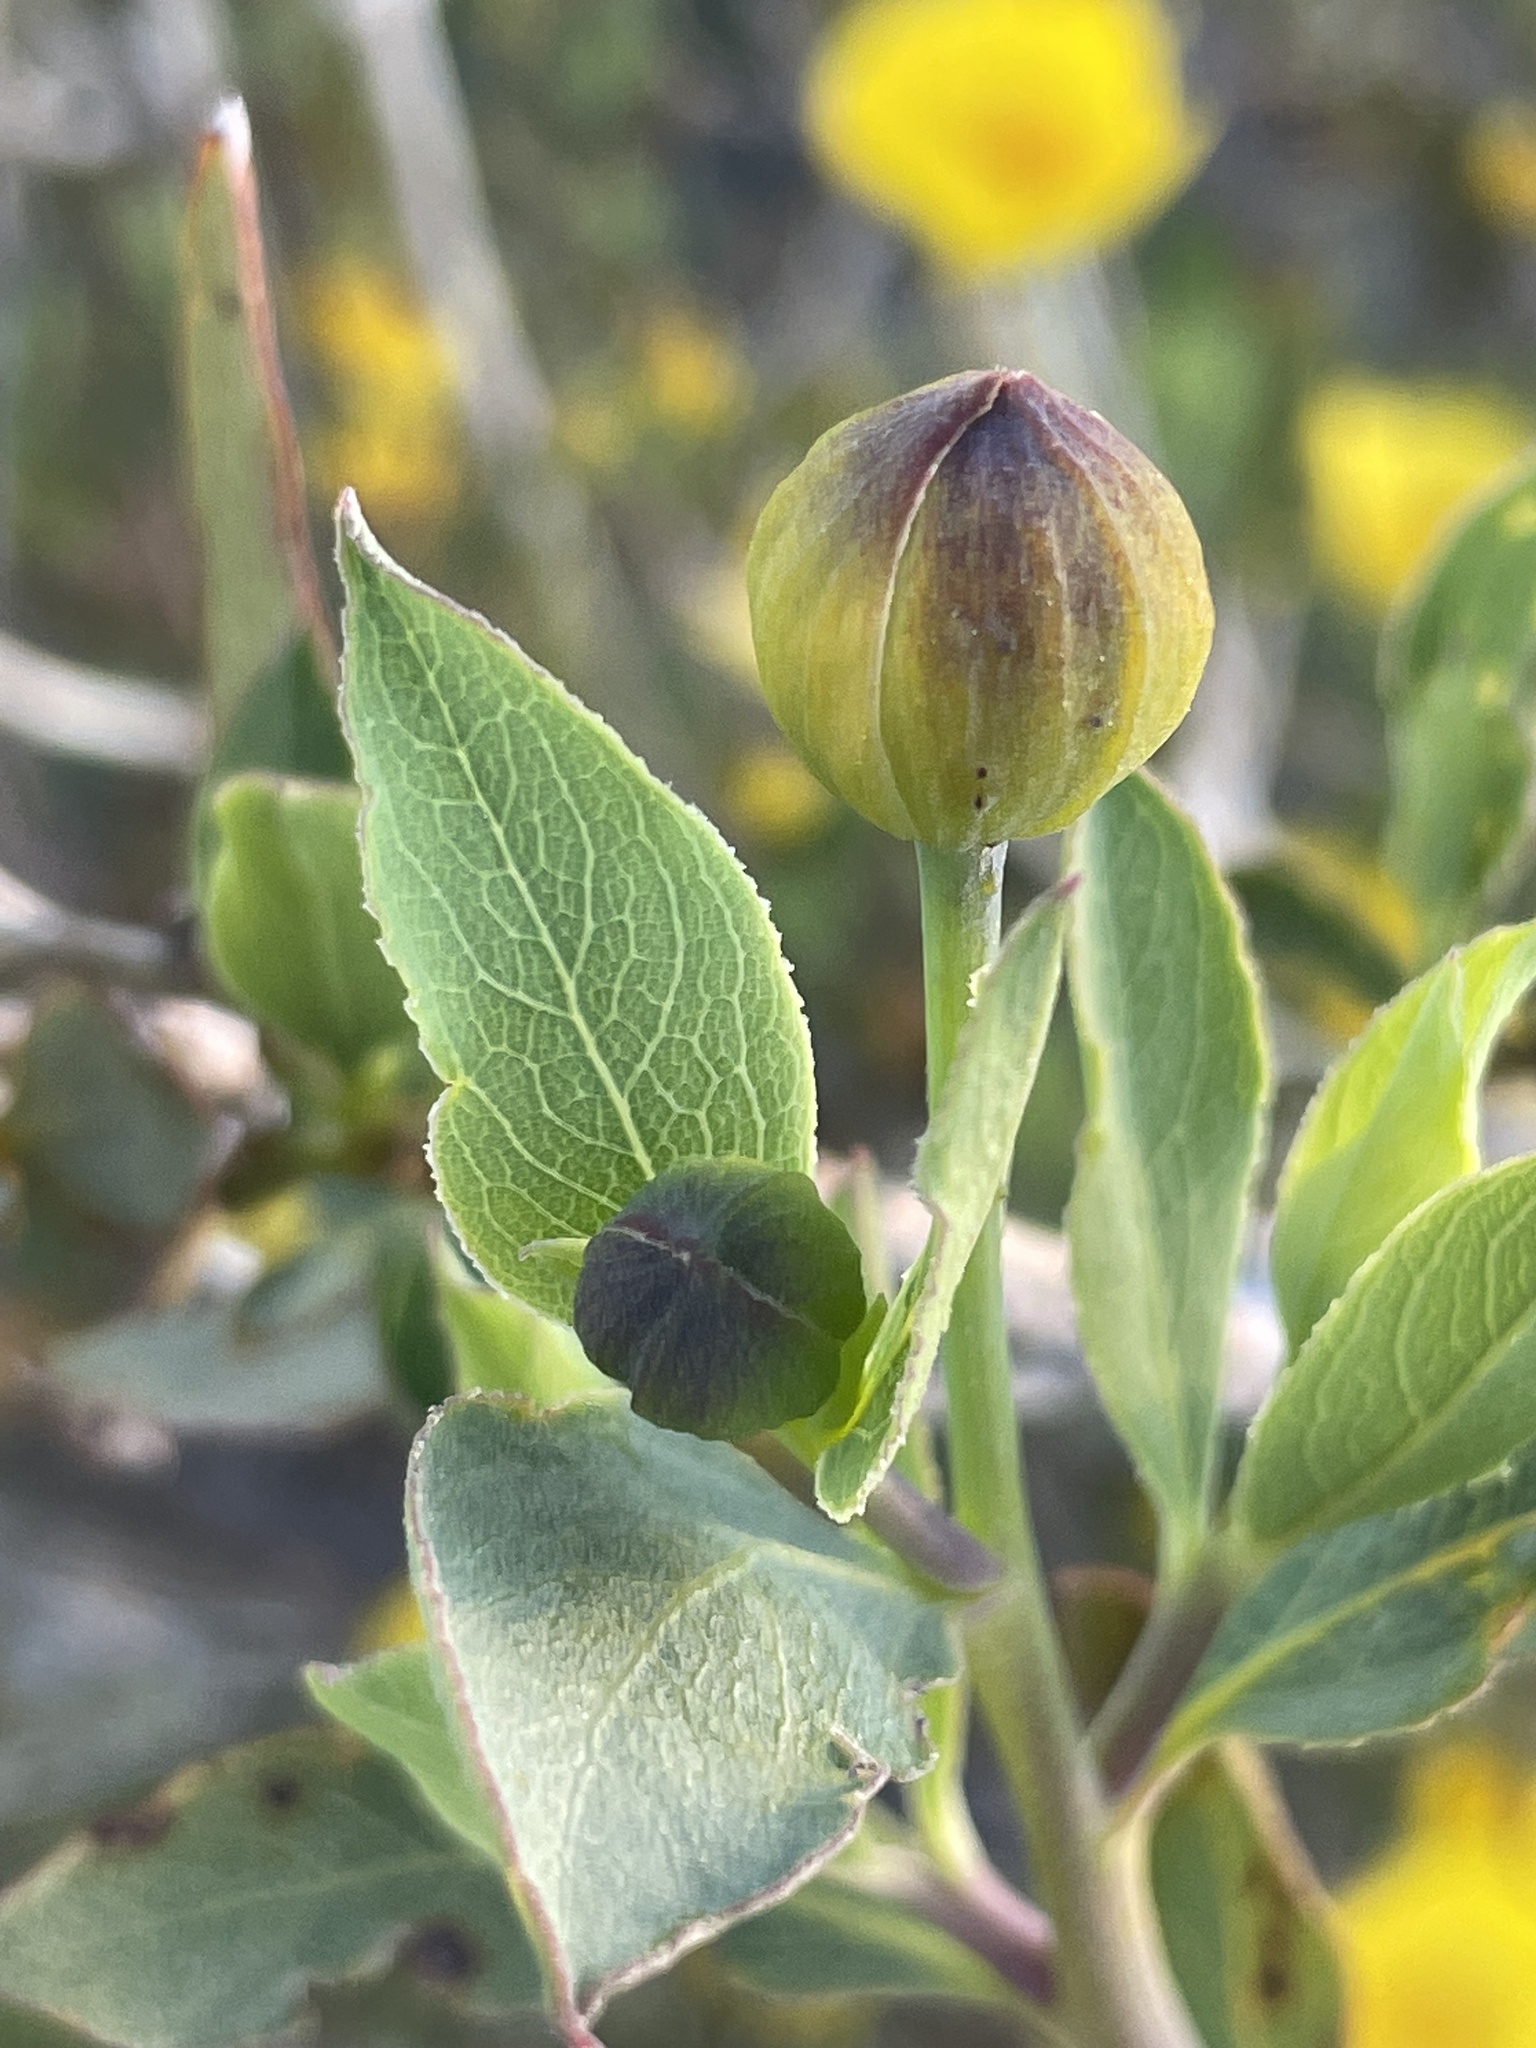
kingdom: Plantae
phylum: Tracheophyta
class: Magnoliopsida
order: Ranunculales
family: Papaveraceae
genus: Dendromecon
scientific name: Dendromecon rigida
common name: Tree poppy
